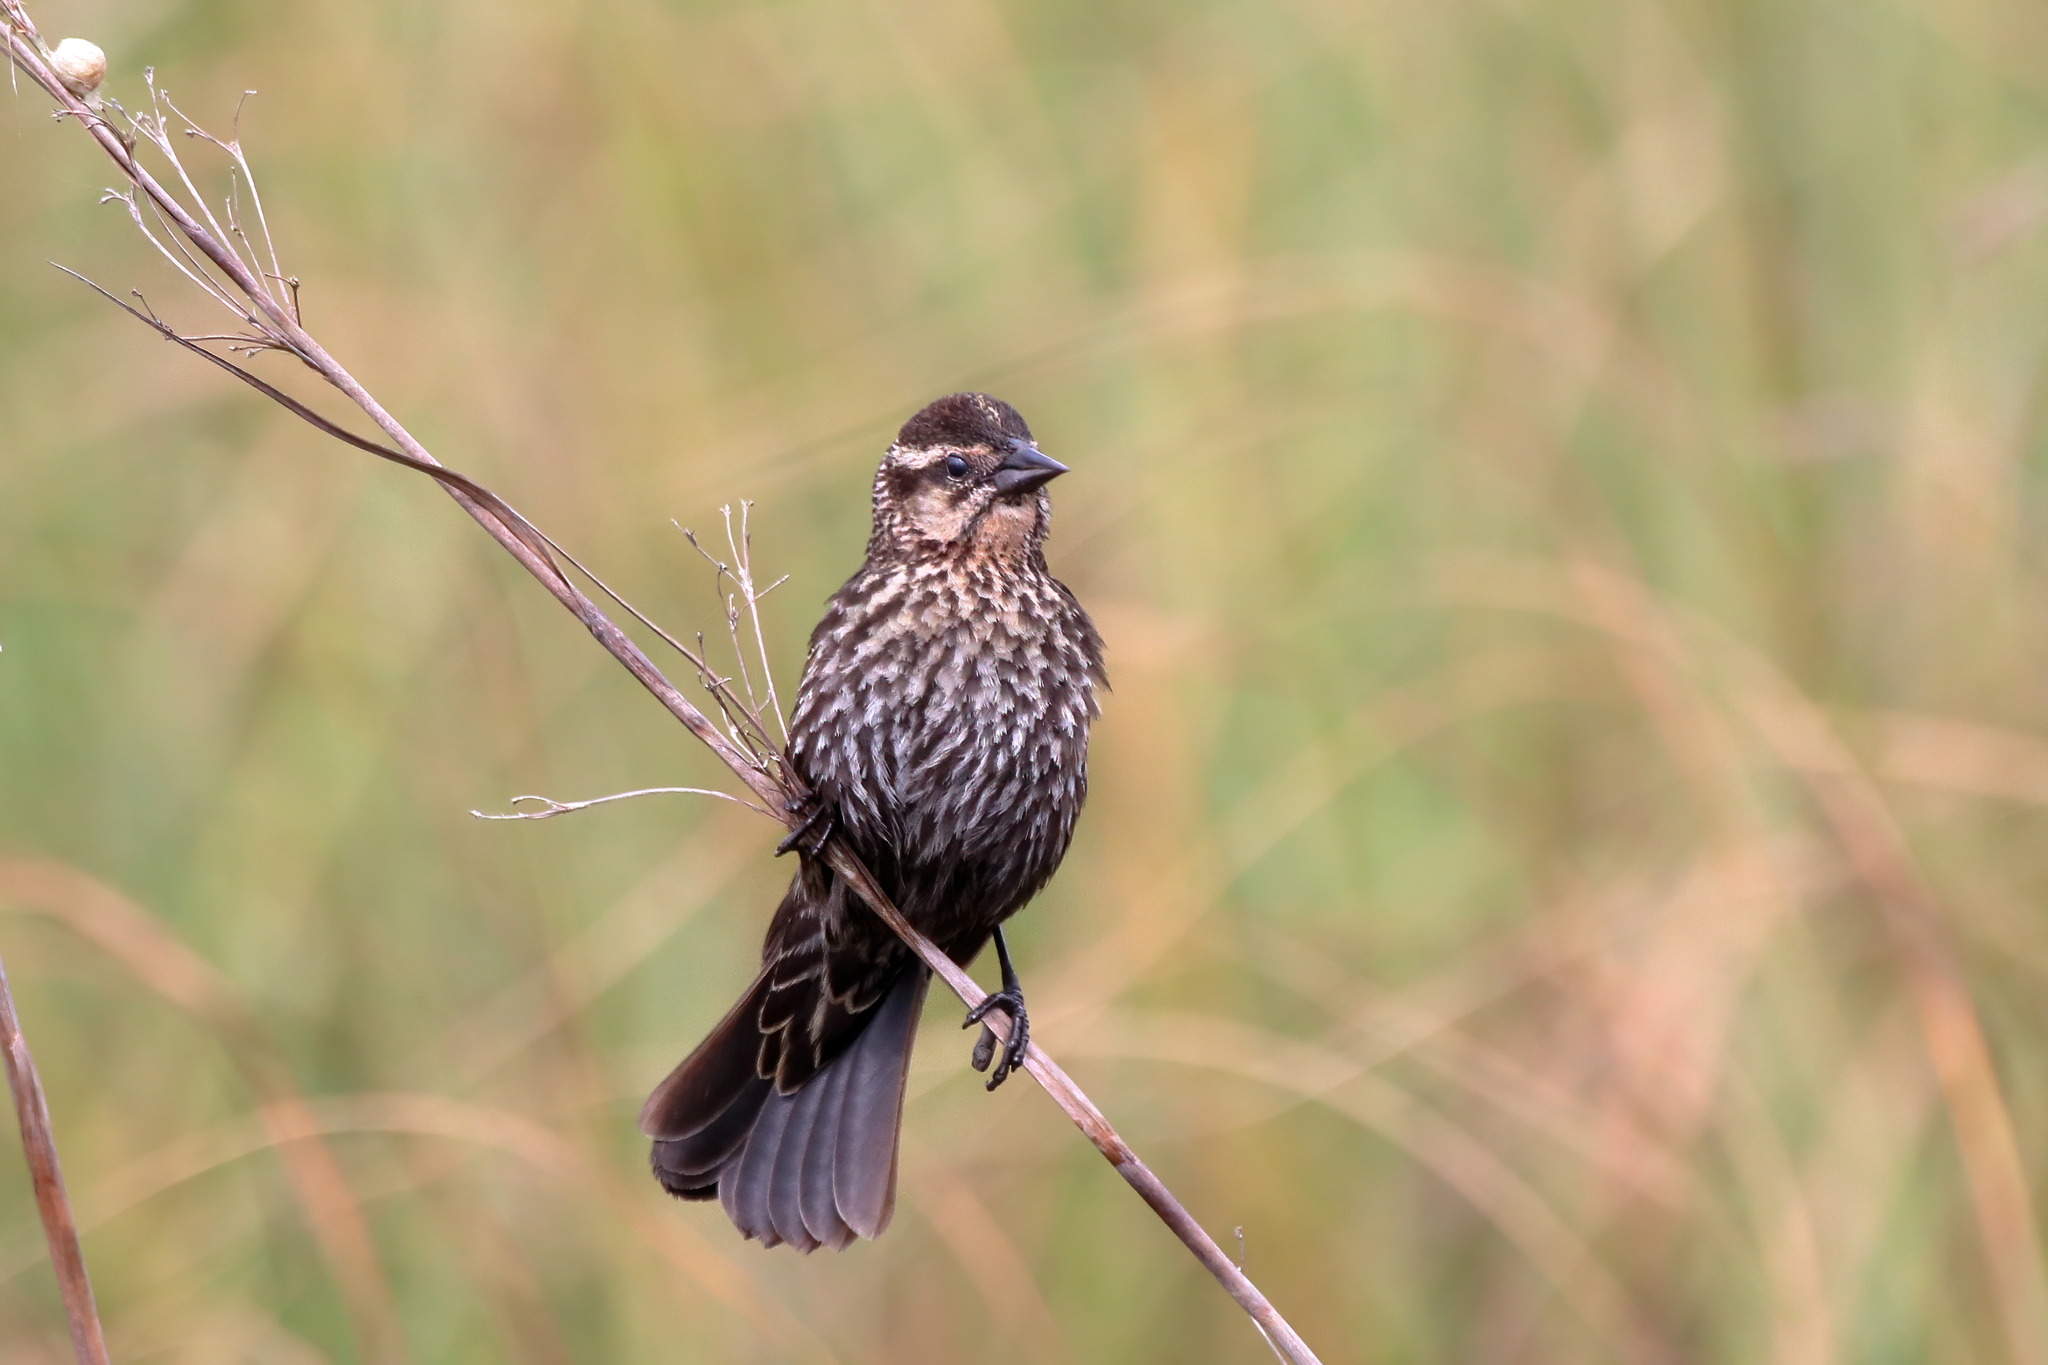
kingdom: Animalia
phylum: Chordata
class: Aves
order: Passeriformes
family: Icteridae
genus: Agelaius
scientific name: Agelaius phoeniceus
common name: Red-winged blackbird
